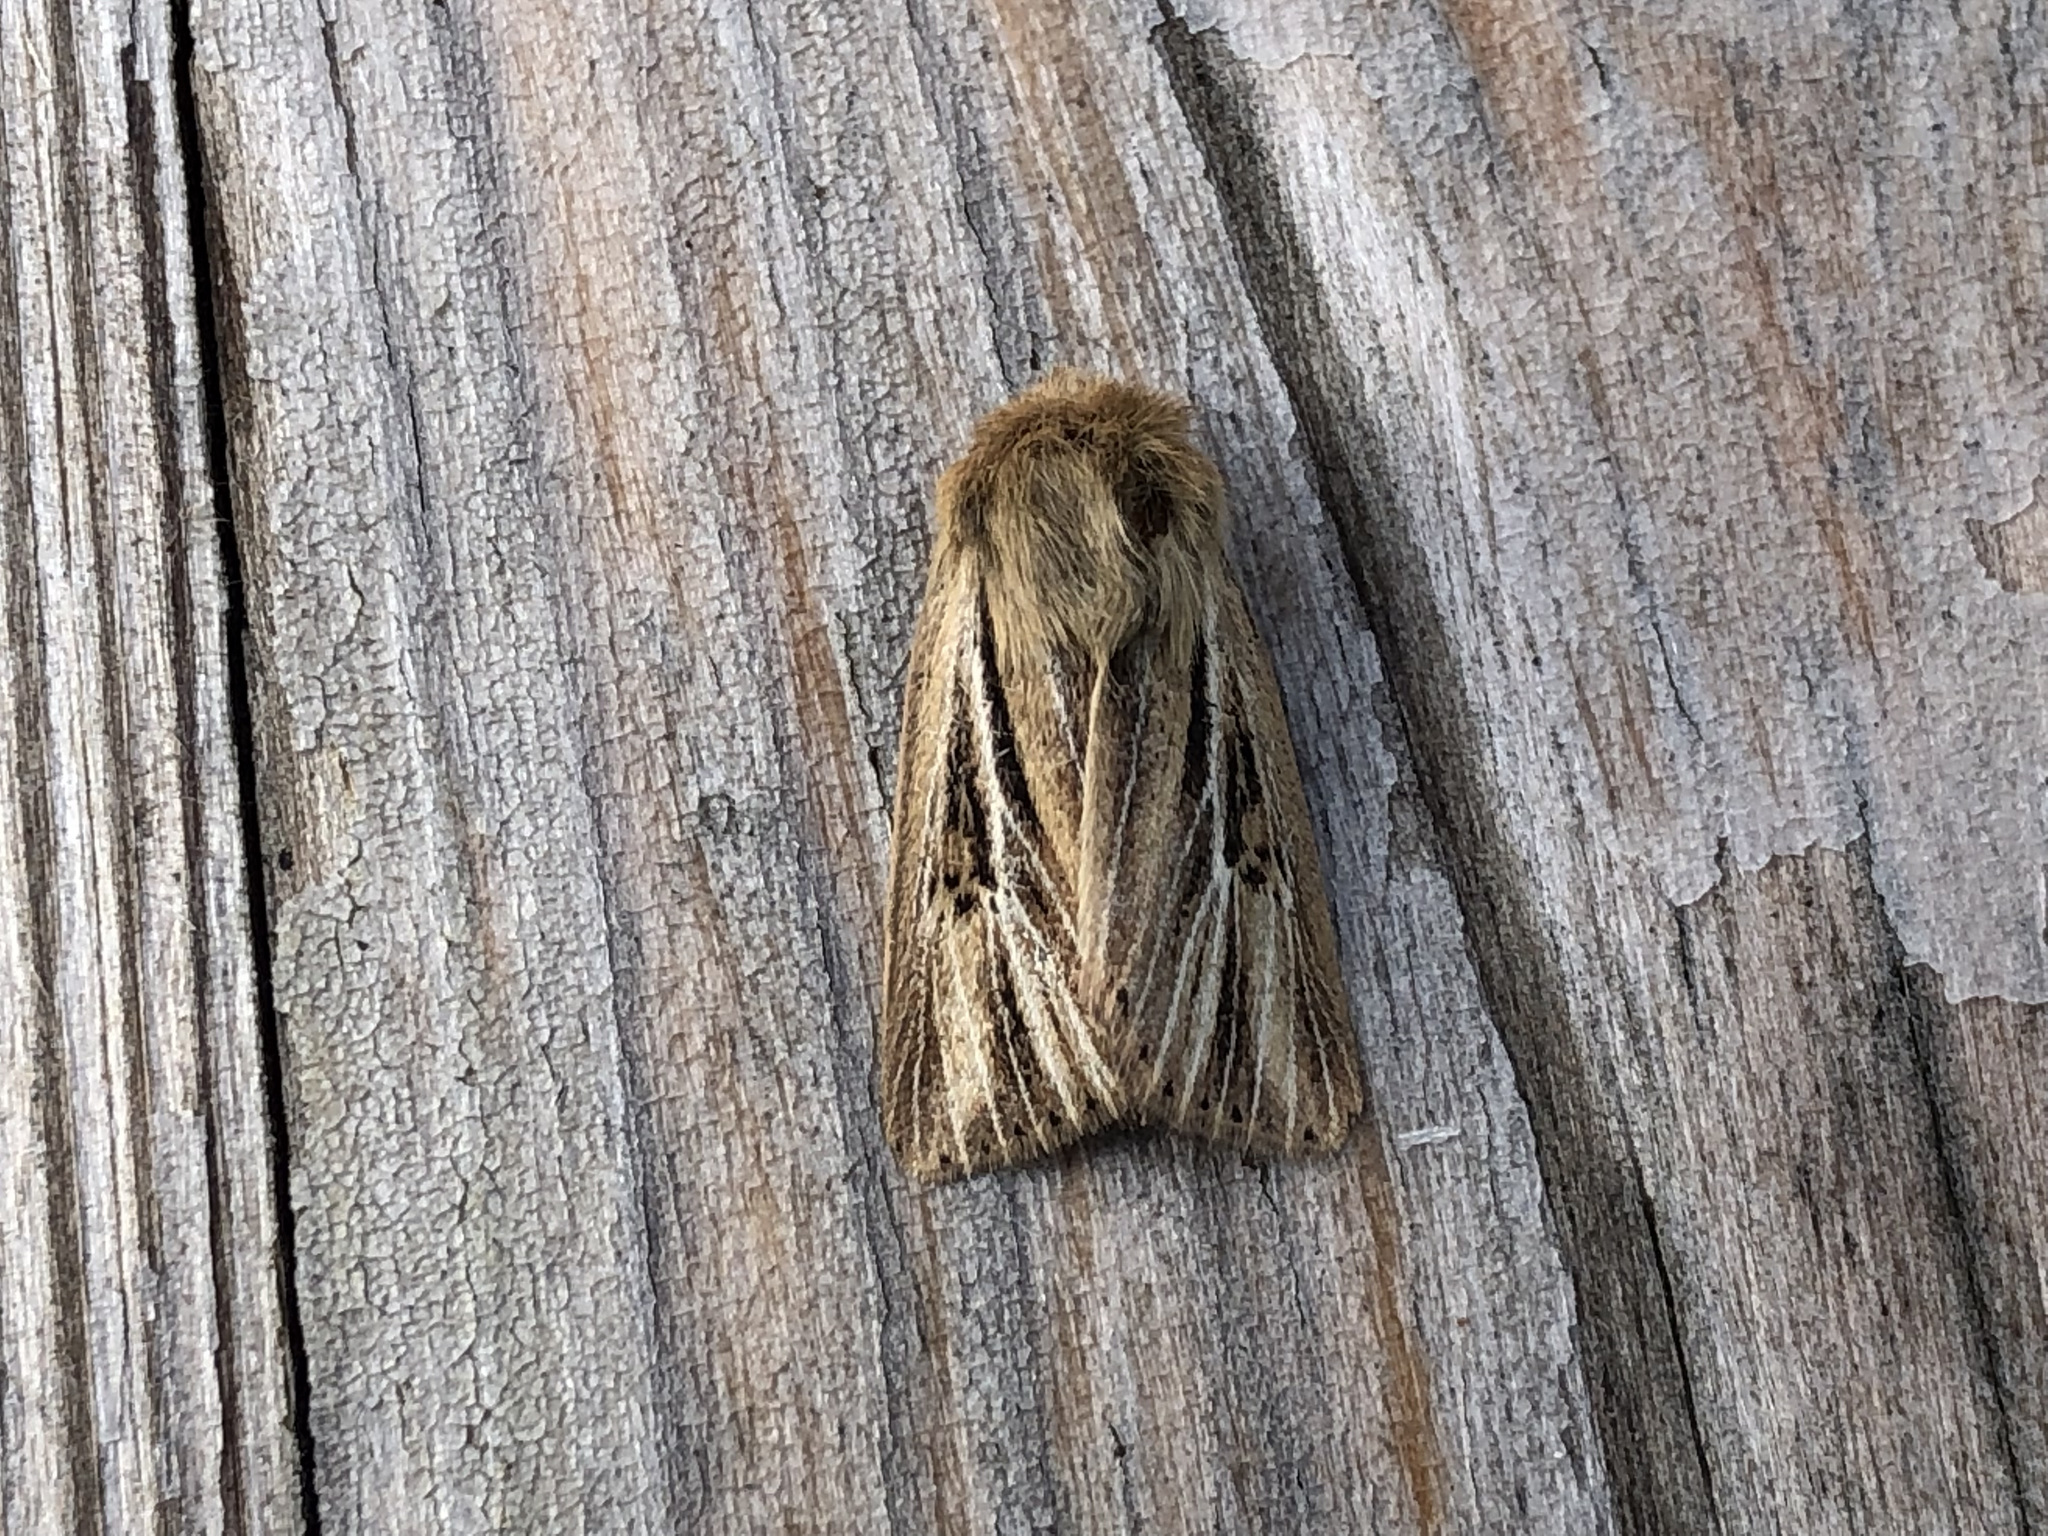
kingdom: Animalia
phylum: Arthropoda
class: Insecta
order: Lepidoptera
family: Noctuidae
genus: Mythimna
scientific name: Mythimna anderreggii
